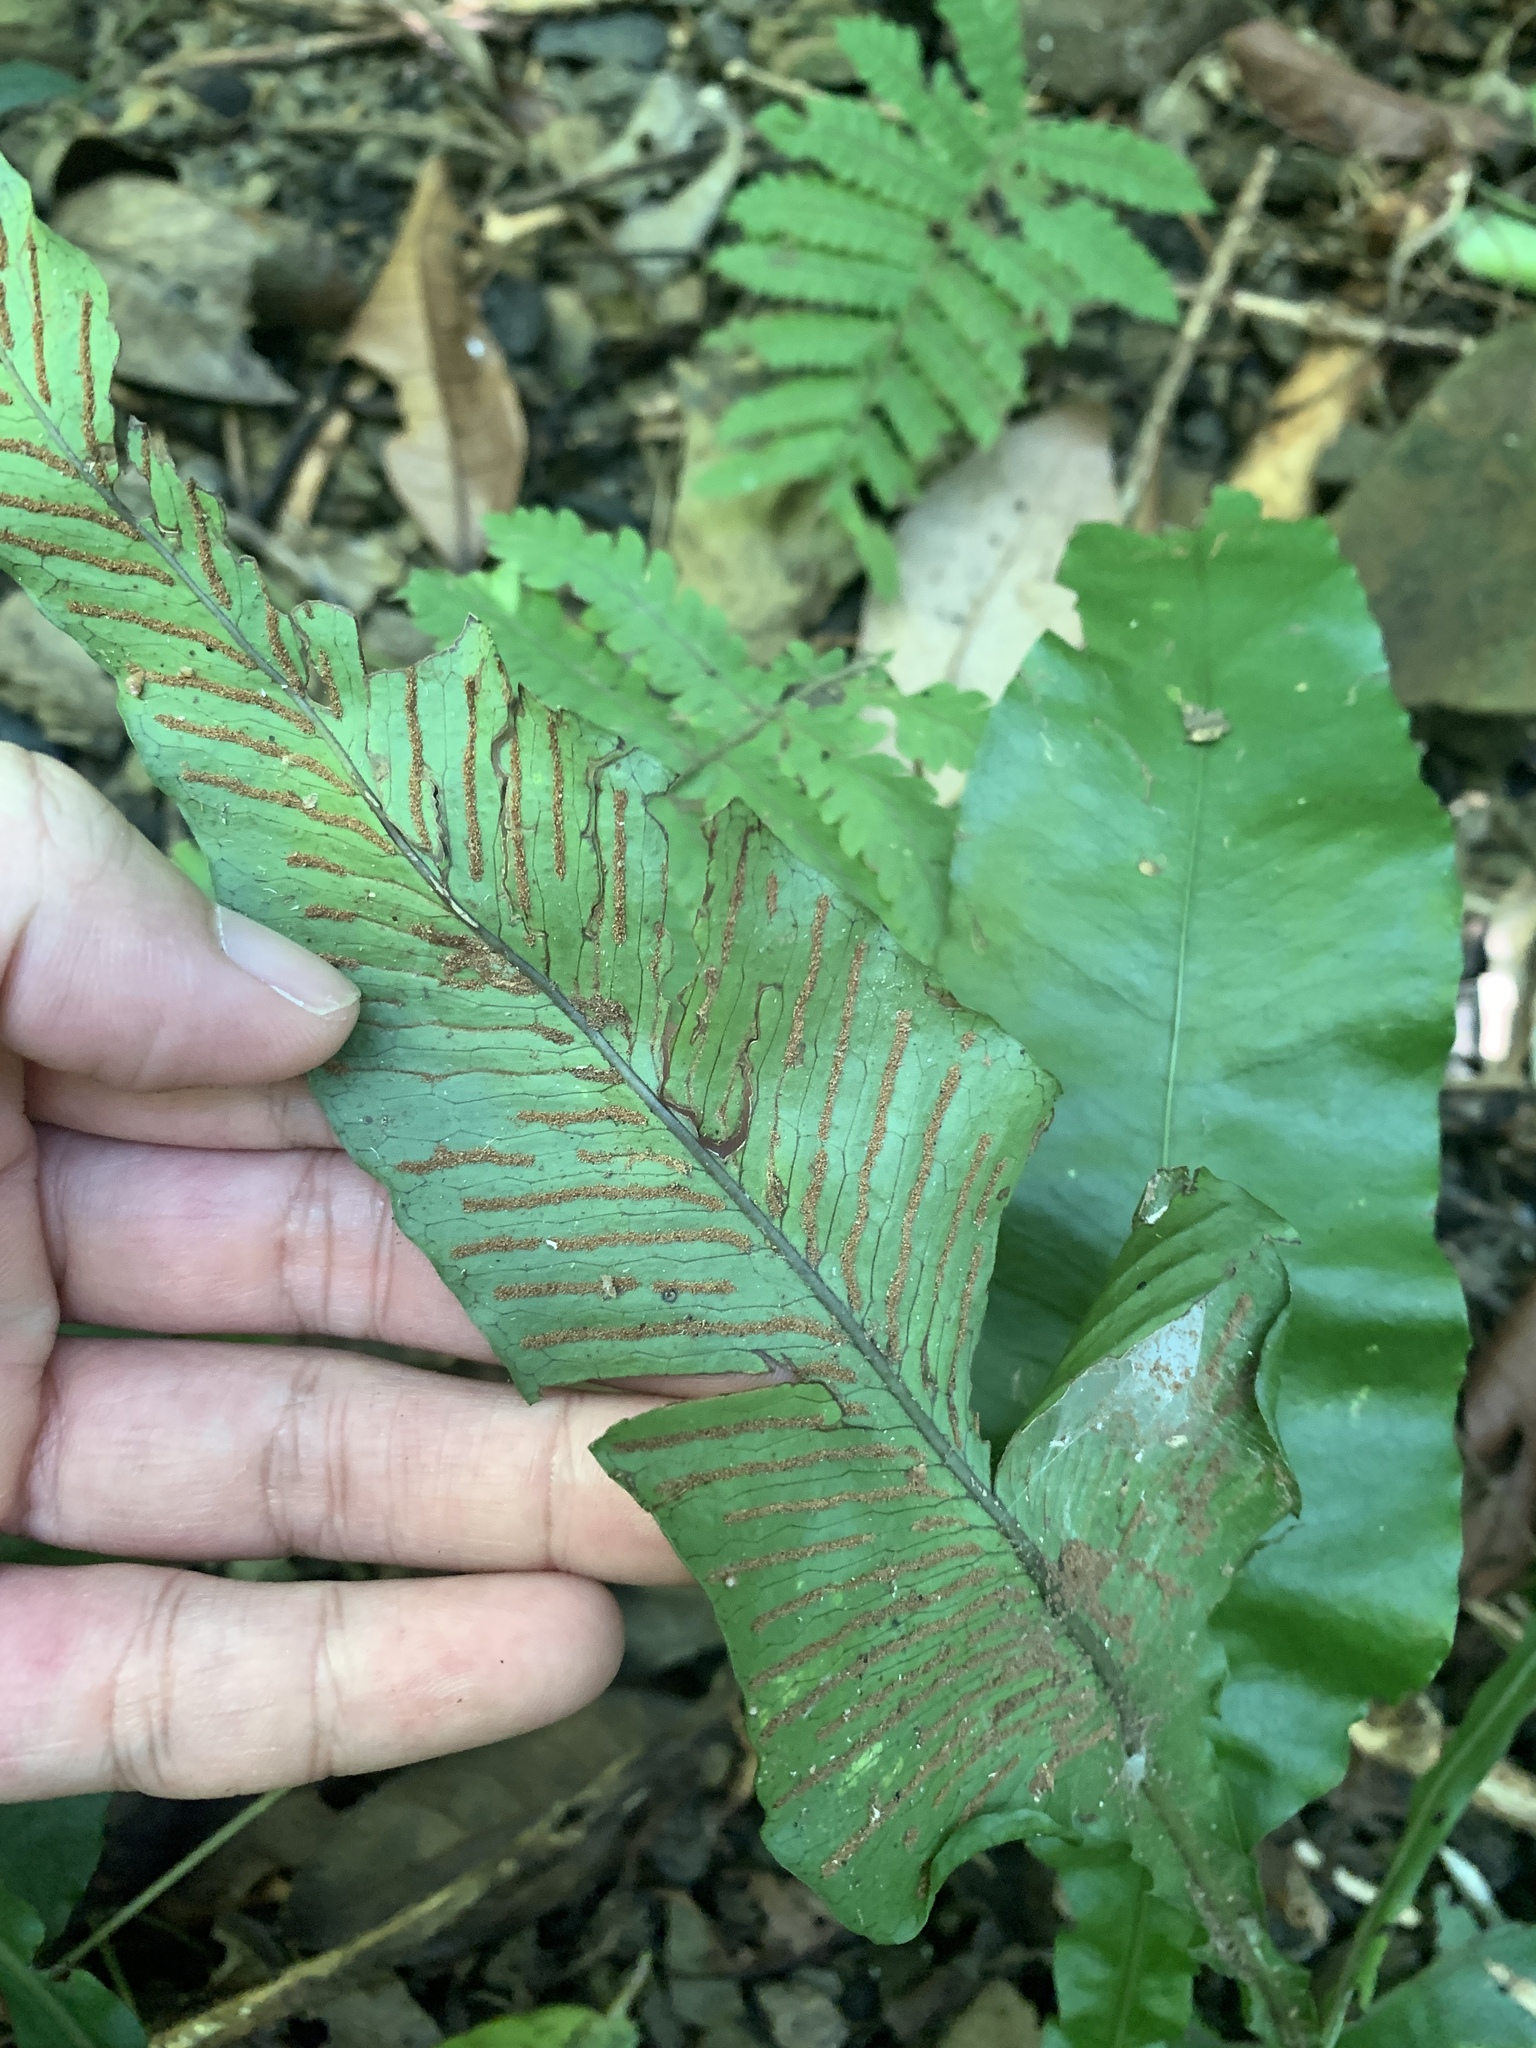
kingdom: Plantae
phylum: Tracheophyta
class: Polypodiopsida
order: Polypodiales
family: Polypodiaceae
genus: Leptochilus
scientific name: Leptochilus wrightii
